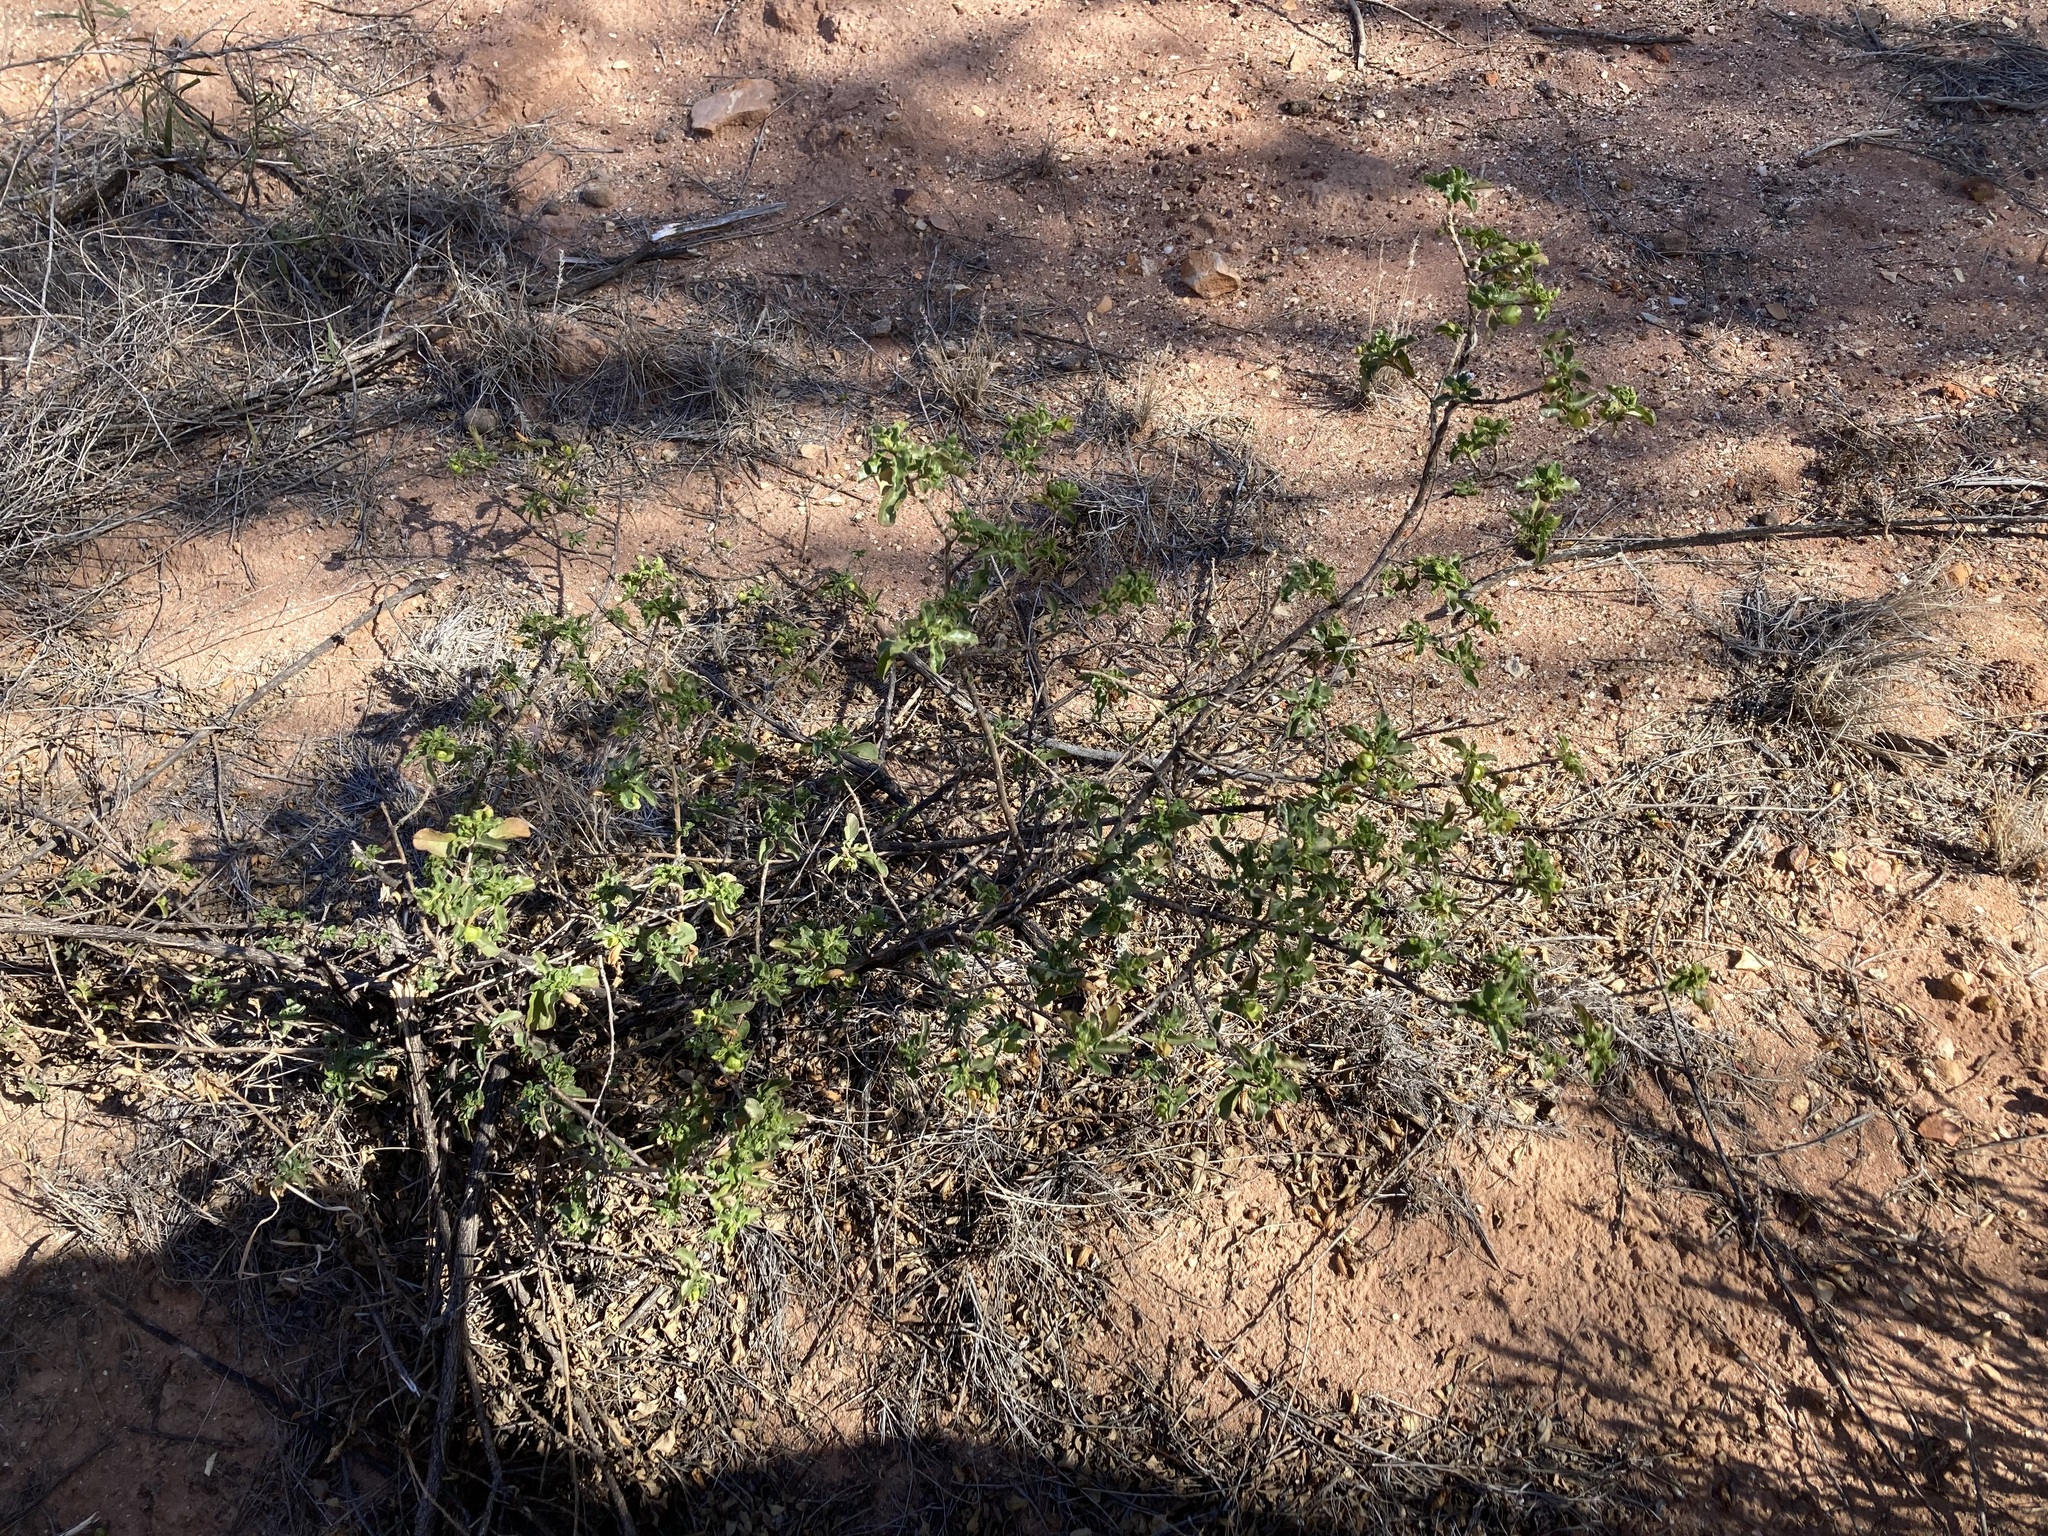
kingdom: Plantae
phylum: Tracheophyta
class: Magnoliopsida
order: Lamiales
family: Scrophulariaceae
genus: Eremophila
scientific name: Eremophila serrulata
